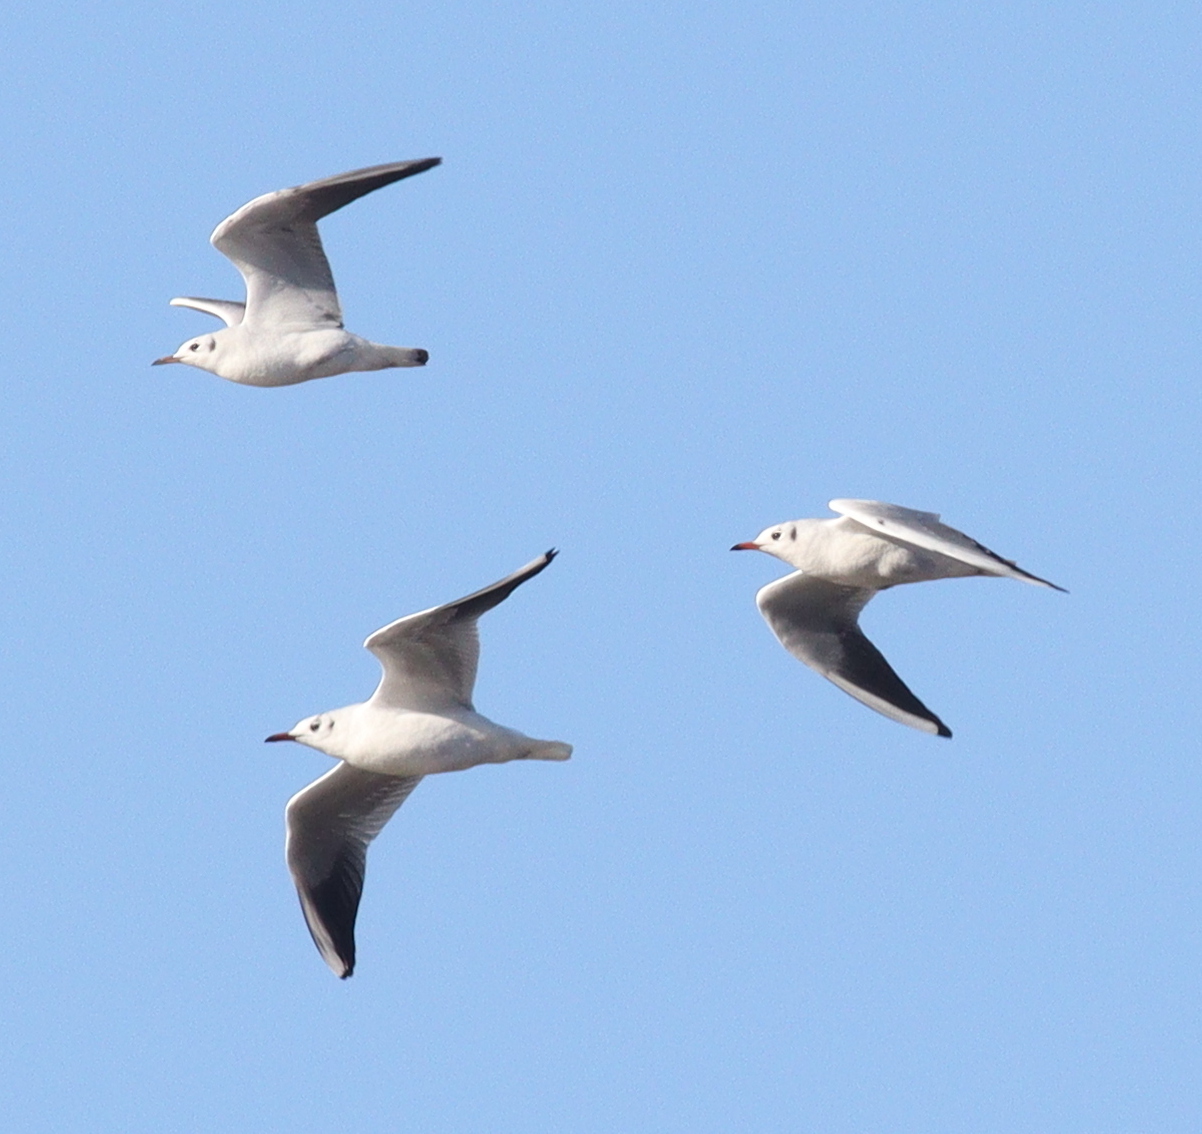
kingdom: Animalia
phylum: Chordata
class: Aves
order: Charadriiformes
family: Laridae
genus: Chroicocephalus
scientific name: Chroicocephalus ridibundus
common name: Black-headed gull
